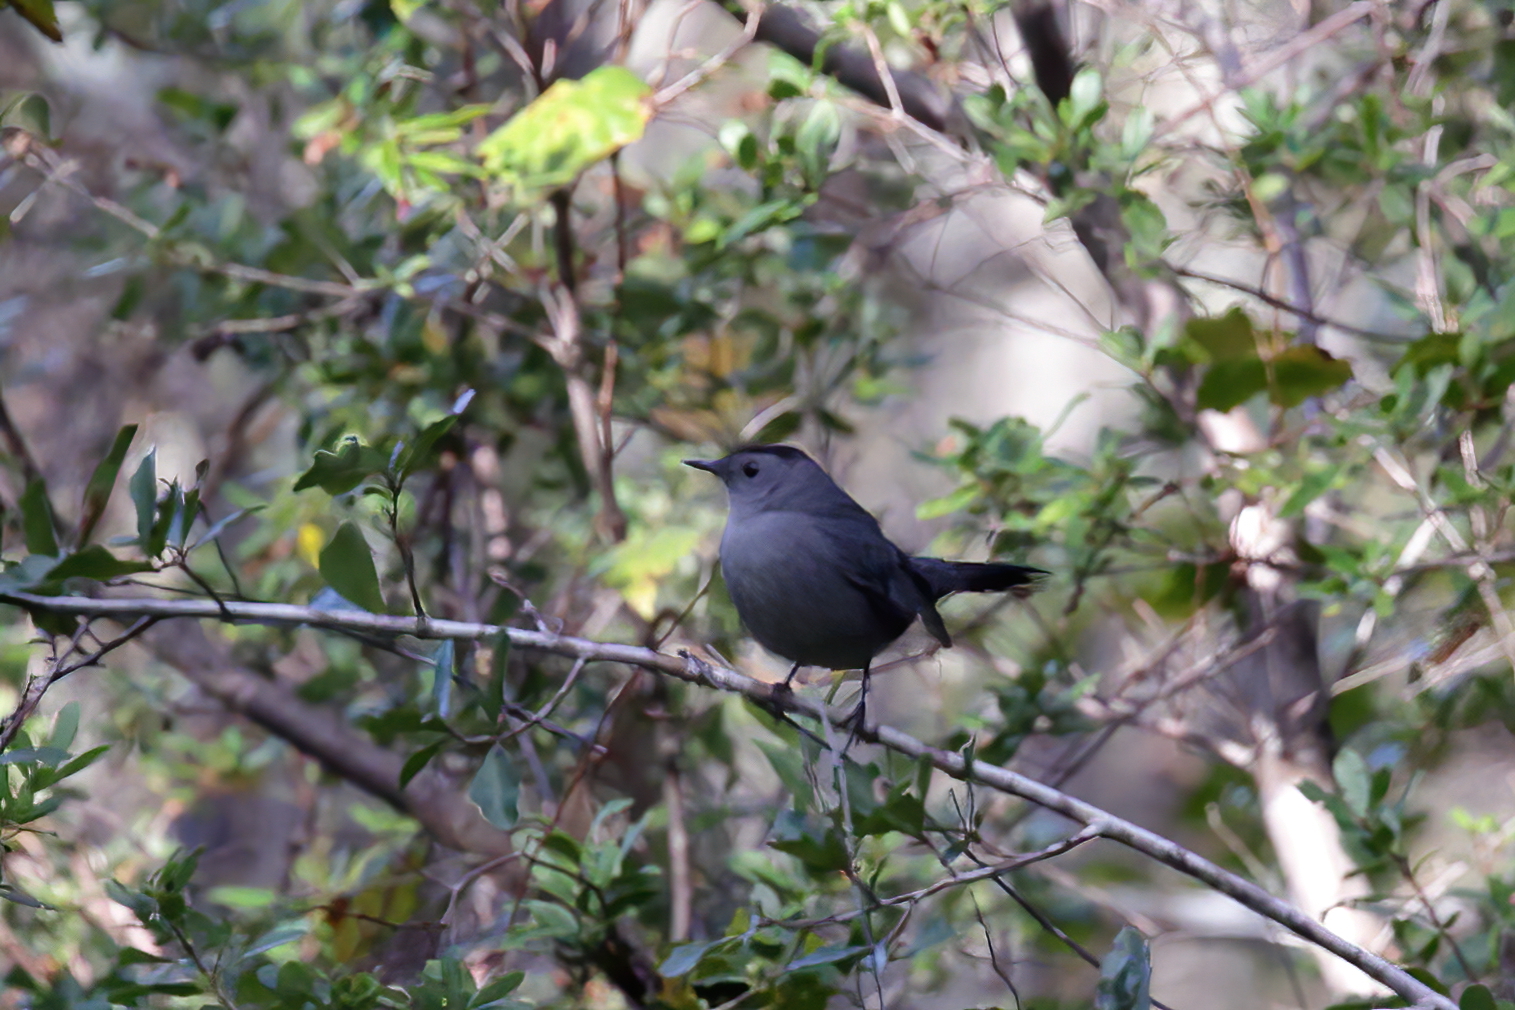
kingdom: Animalia
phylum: Chordata
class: Aves
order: Passeriformes
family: Mimidae
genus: Dumetella
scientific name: Dumetella carolinensis
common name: Gray catbird
